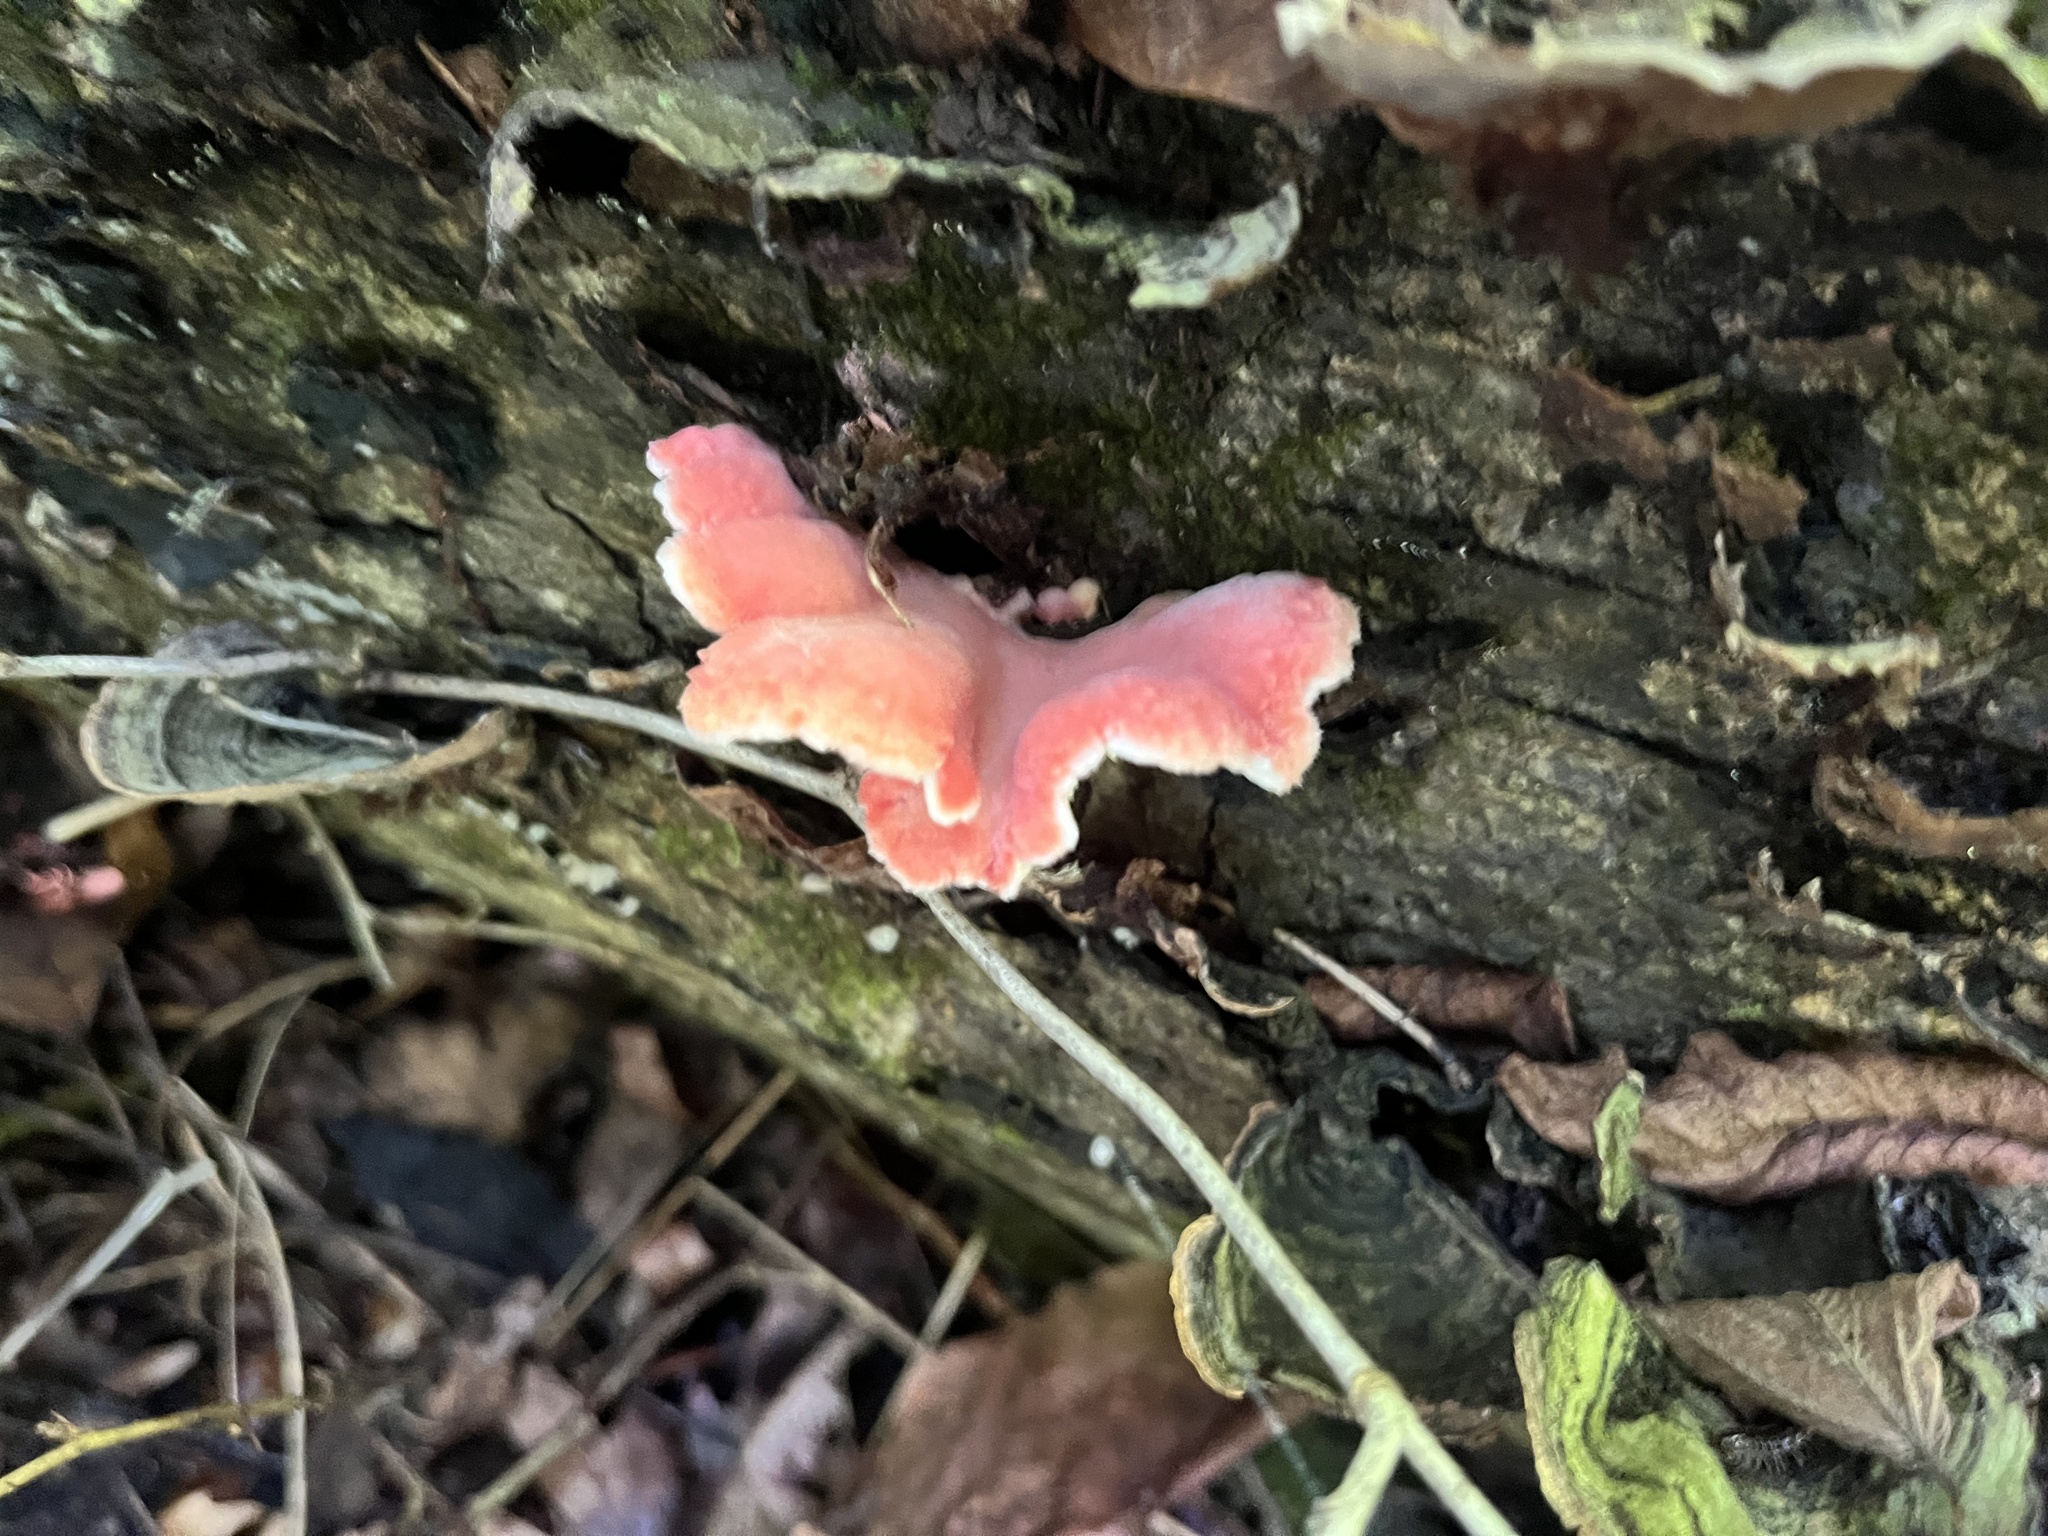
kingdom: Fungi
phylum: Basidiomycota
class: Agaricomycetes
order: Polyporales
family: Irpicaceae
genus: Byssomerulius
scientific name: Byssomerulius incarnatus
